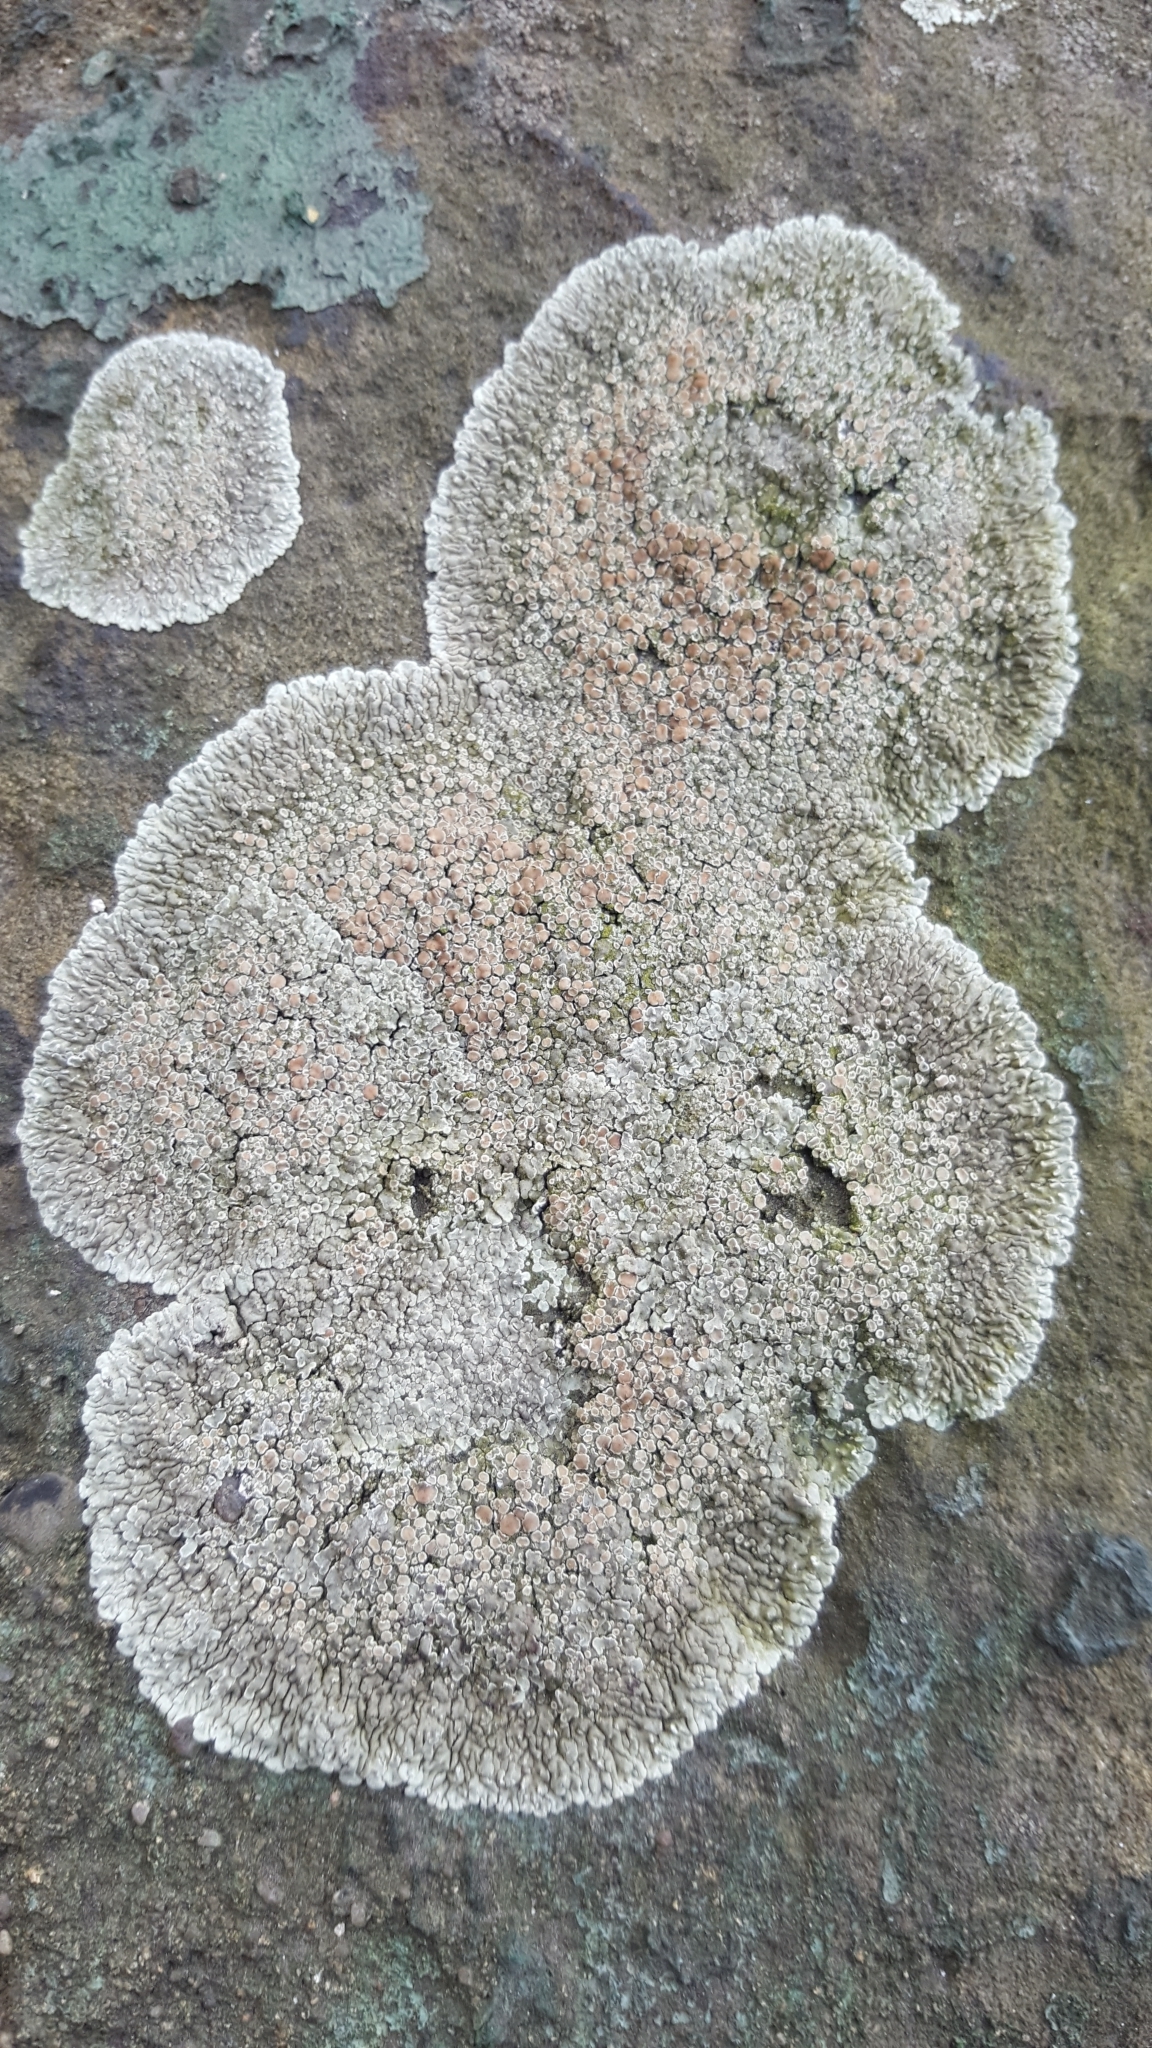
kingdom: Fungi
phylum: Ascomycota
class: Lecanoromycetes
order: Lecanorales
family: Lecanoraceae
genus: Protoparmeliopsis
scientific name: Protoparmeliopsis muralis
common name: Stonewall rim lichen
